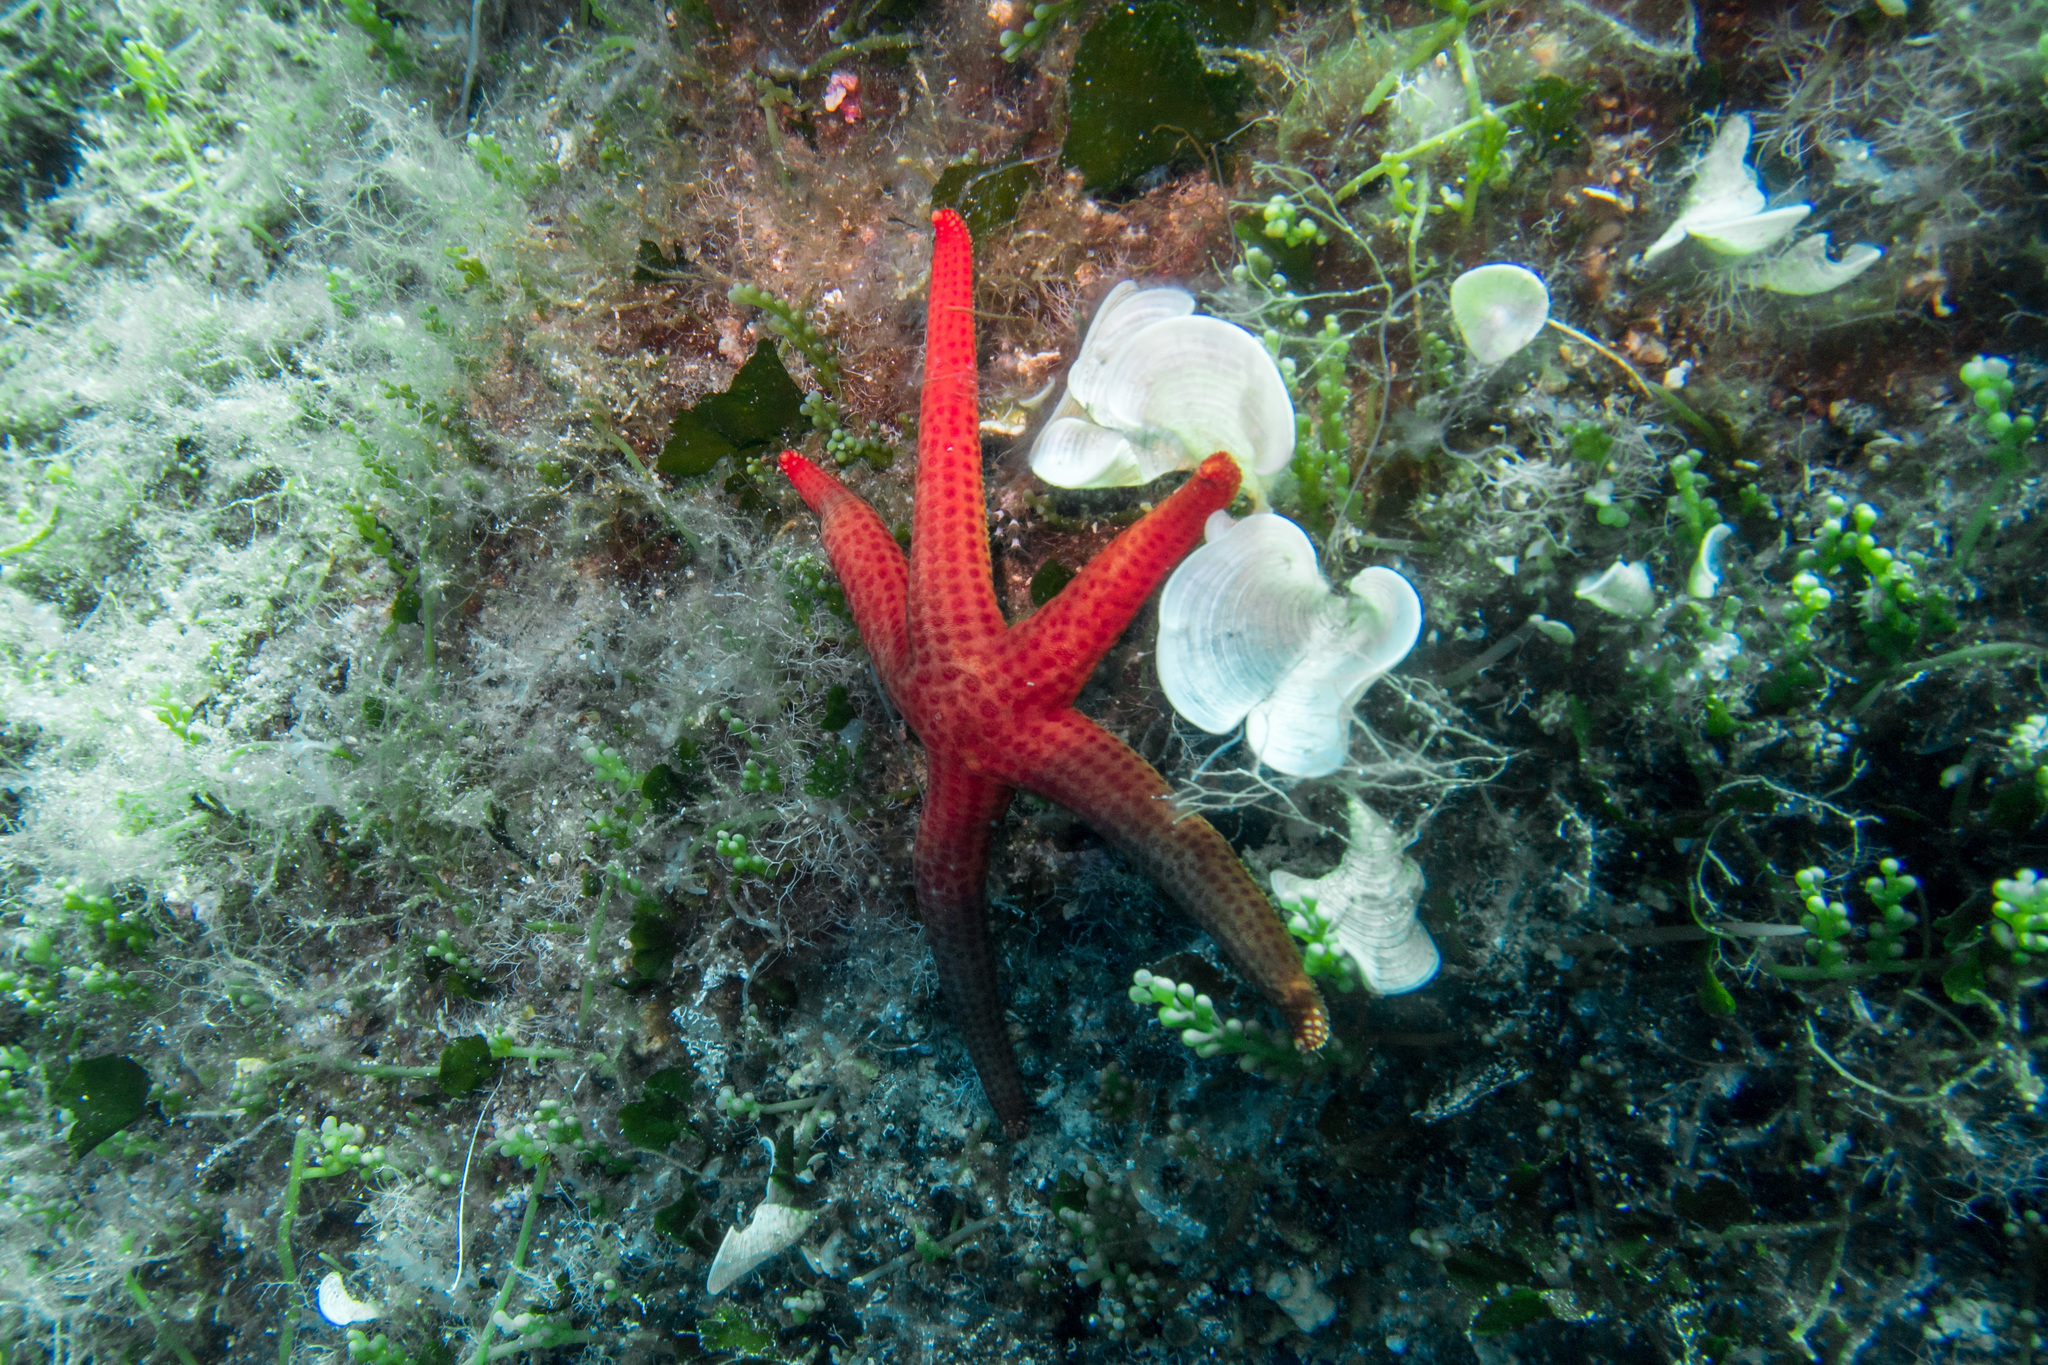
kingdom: Animalia
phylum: Echinodermata
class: Asteroidea
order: Valvatida
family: Ophidiasteridae
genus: Hacelia
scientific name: Hacelia attenuata
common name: Smooth starfish
